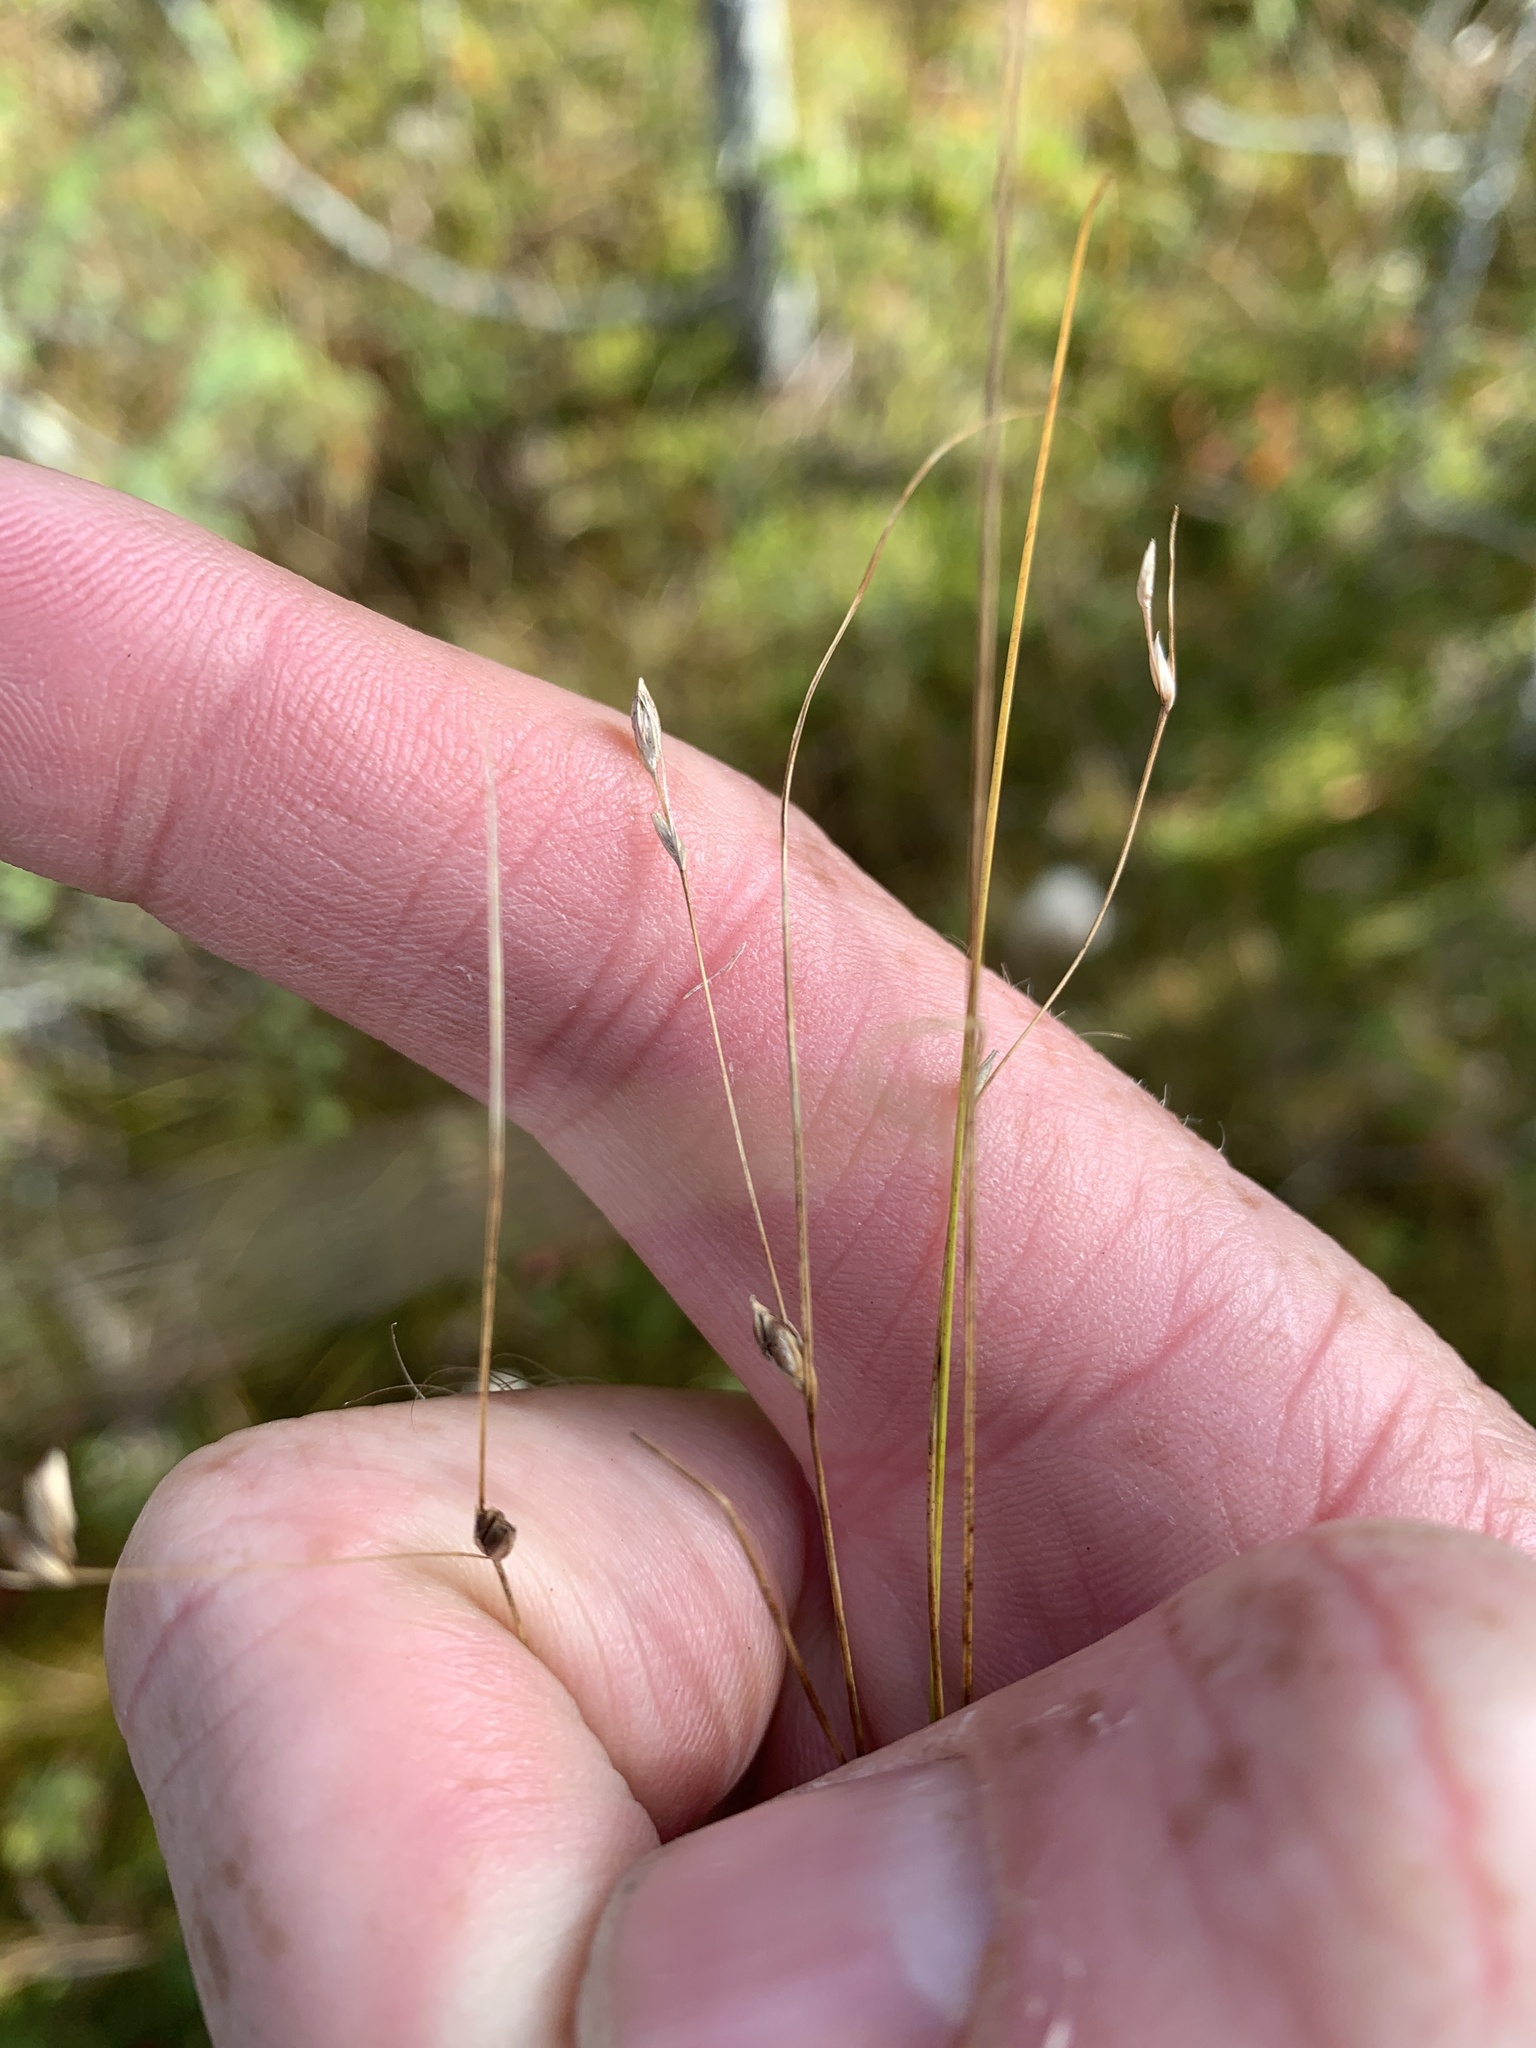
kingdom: Plantae
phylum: Tracheophyta
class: Liliopsida
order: Poales
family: Cyperaceae
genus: Carex
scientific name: Carex trisperma
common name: Three-seeded sedge
